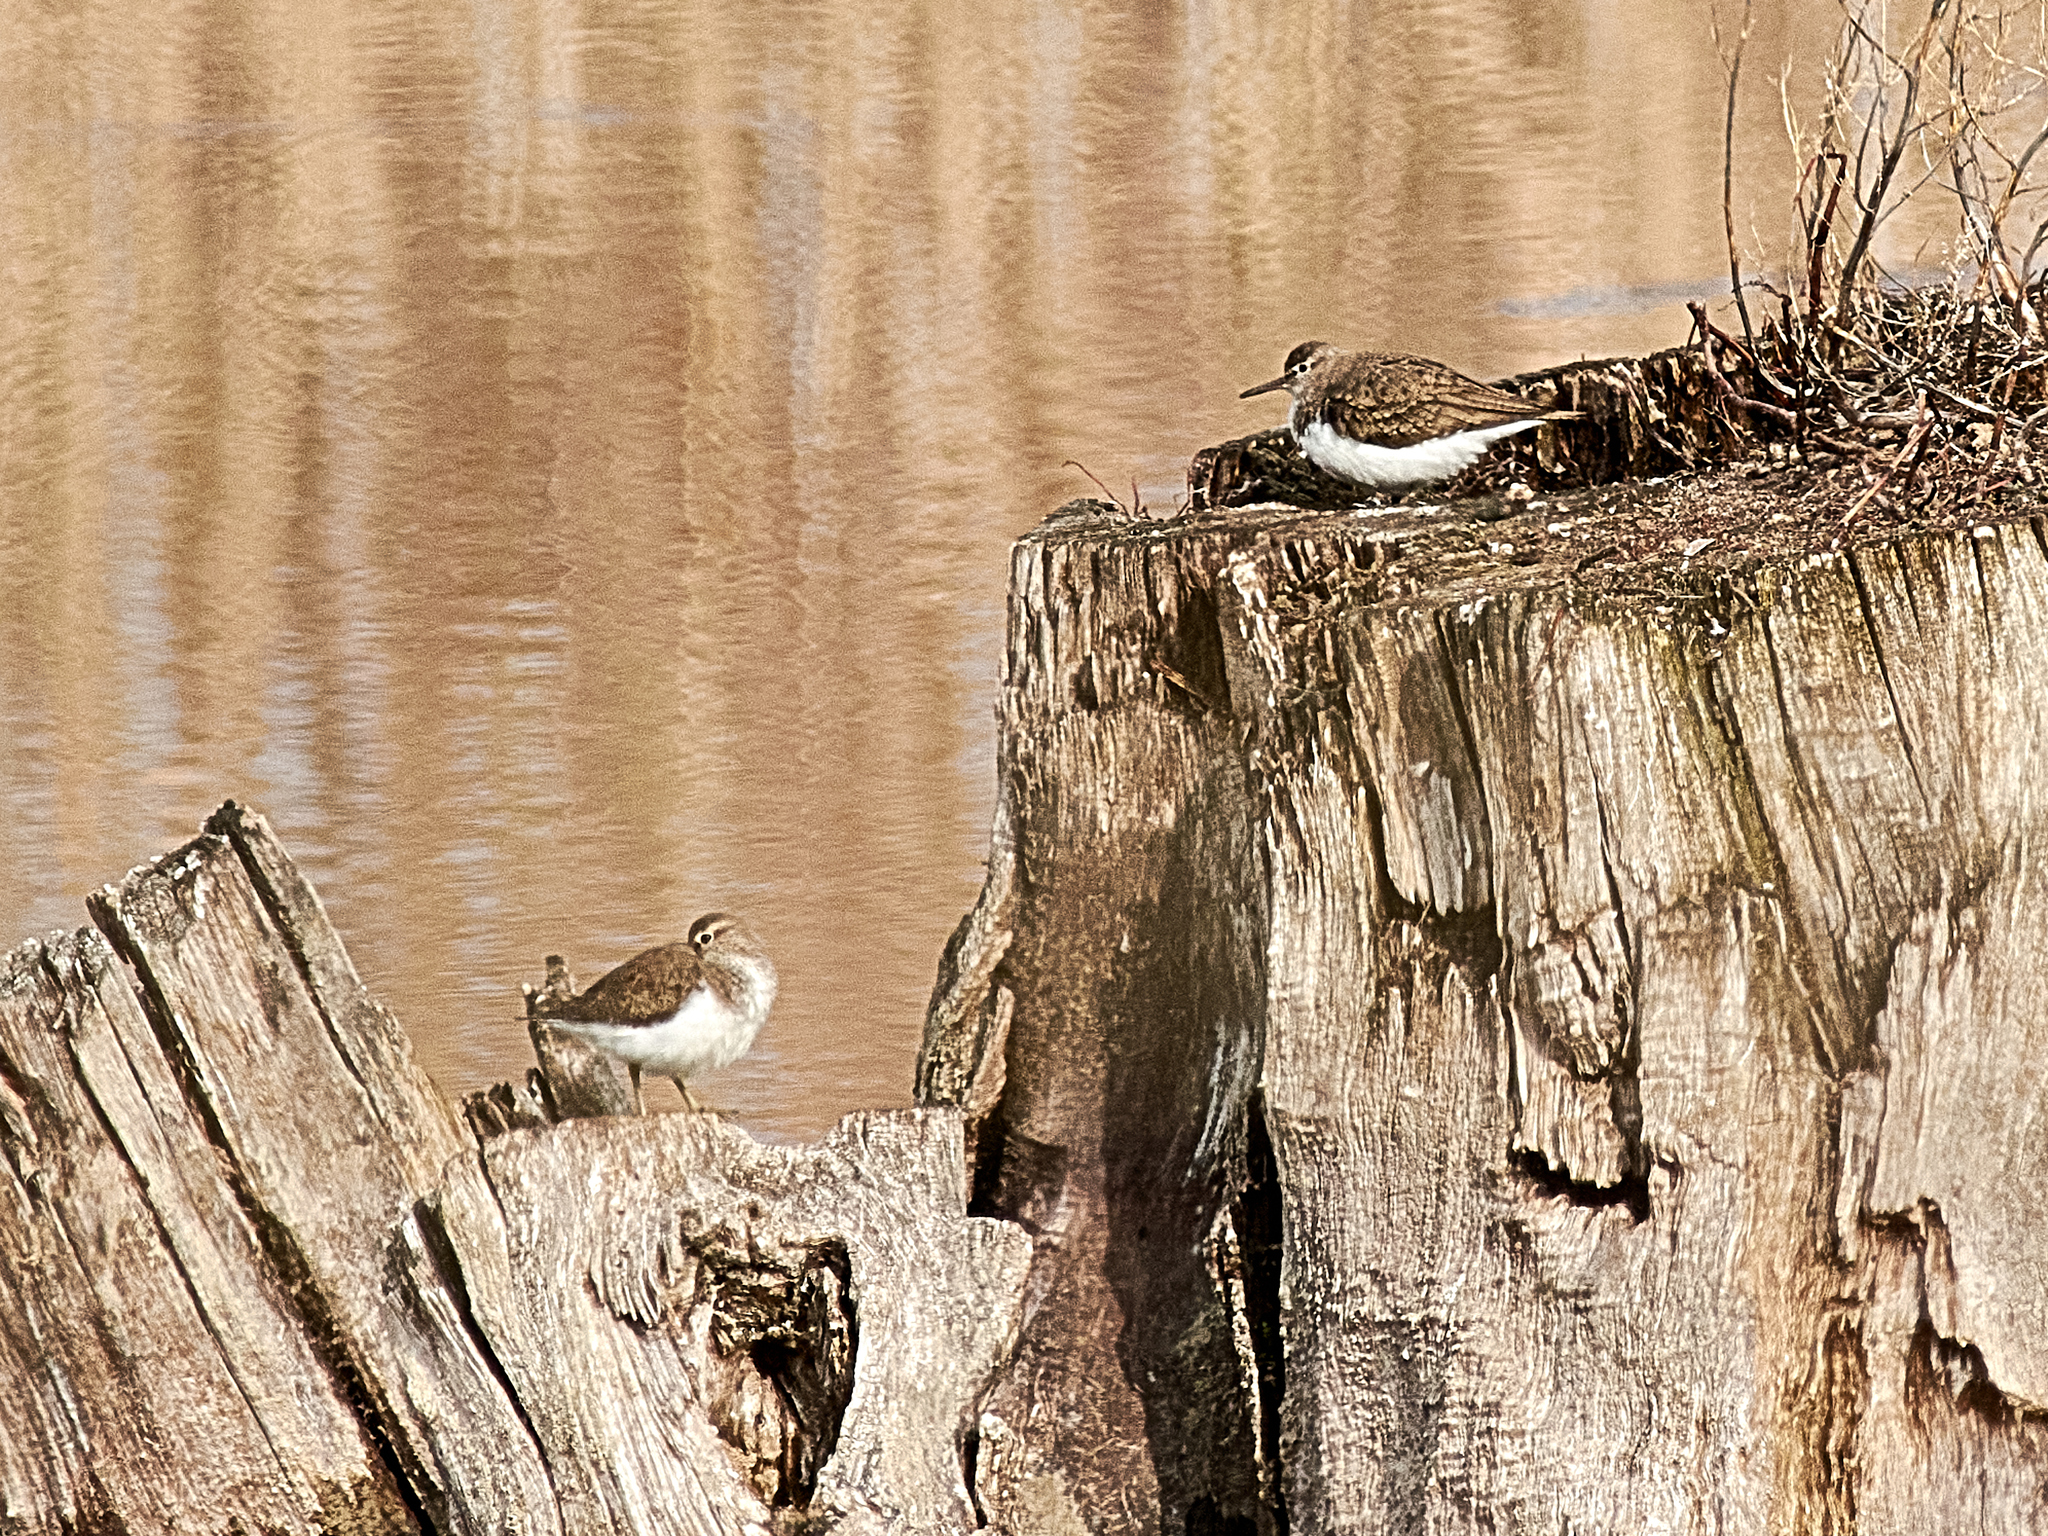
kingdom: Animalia
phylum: Chordata
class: Aves
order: Charadriiformes
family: Scolopacidae
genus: Actitis
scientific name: Actitis hypoleucos
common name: Common sandpiper
